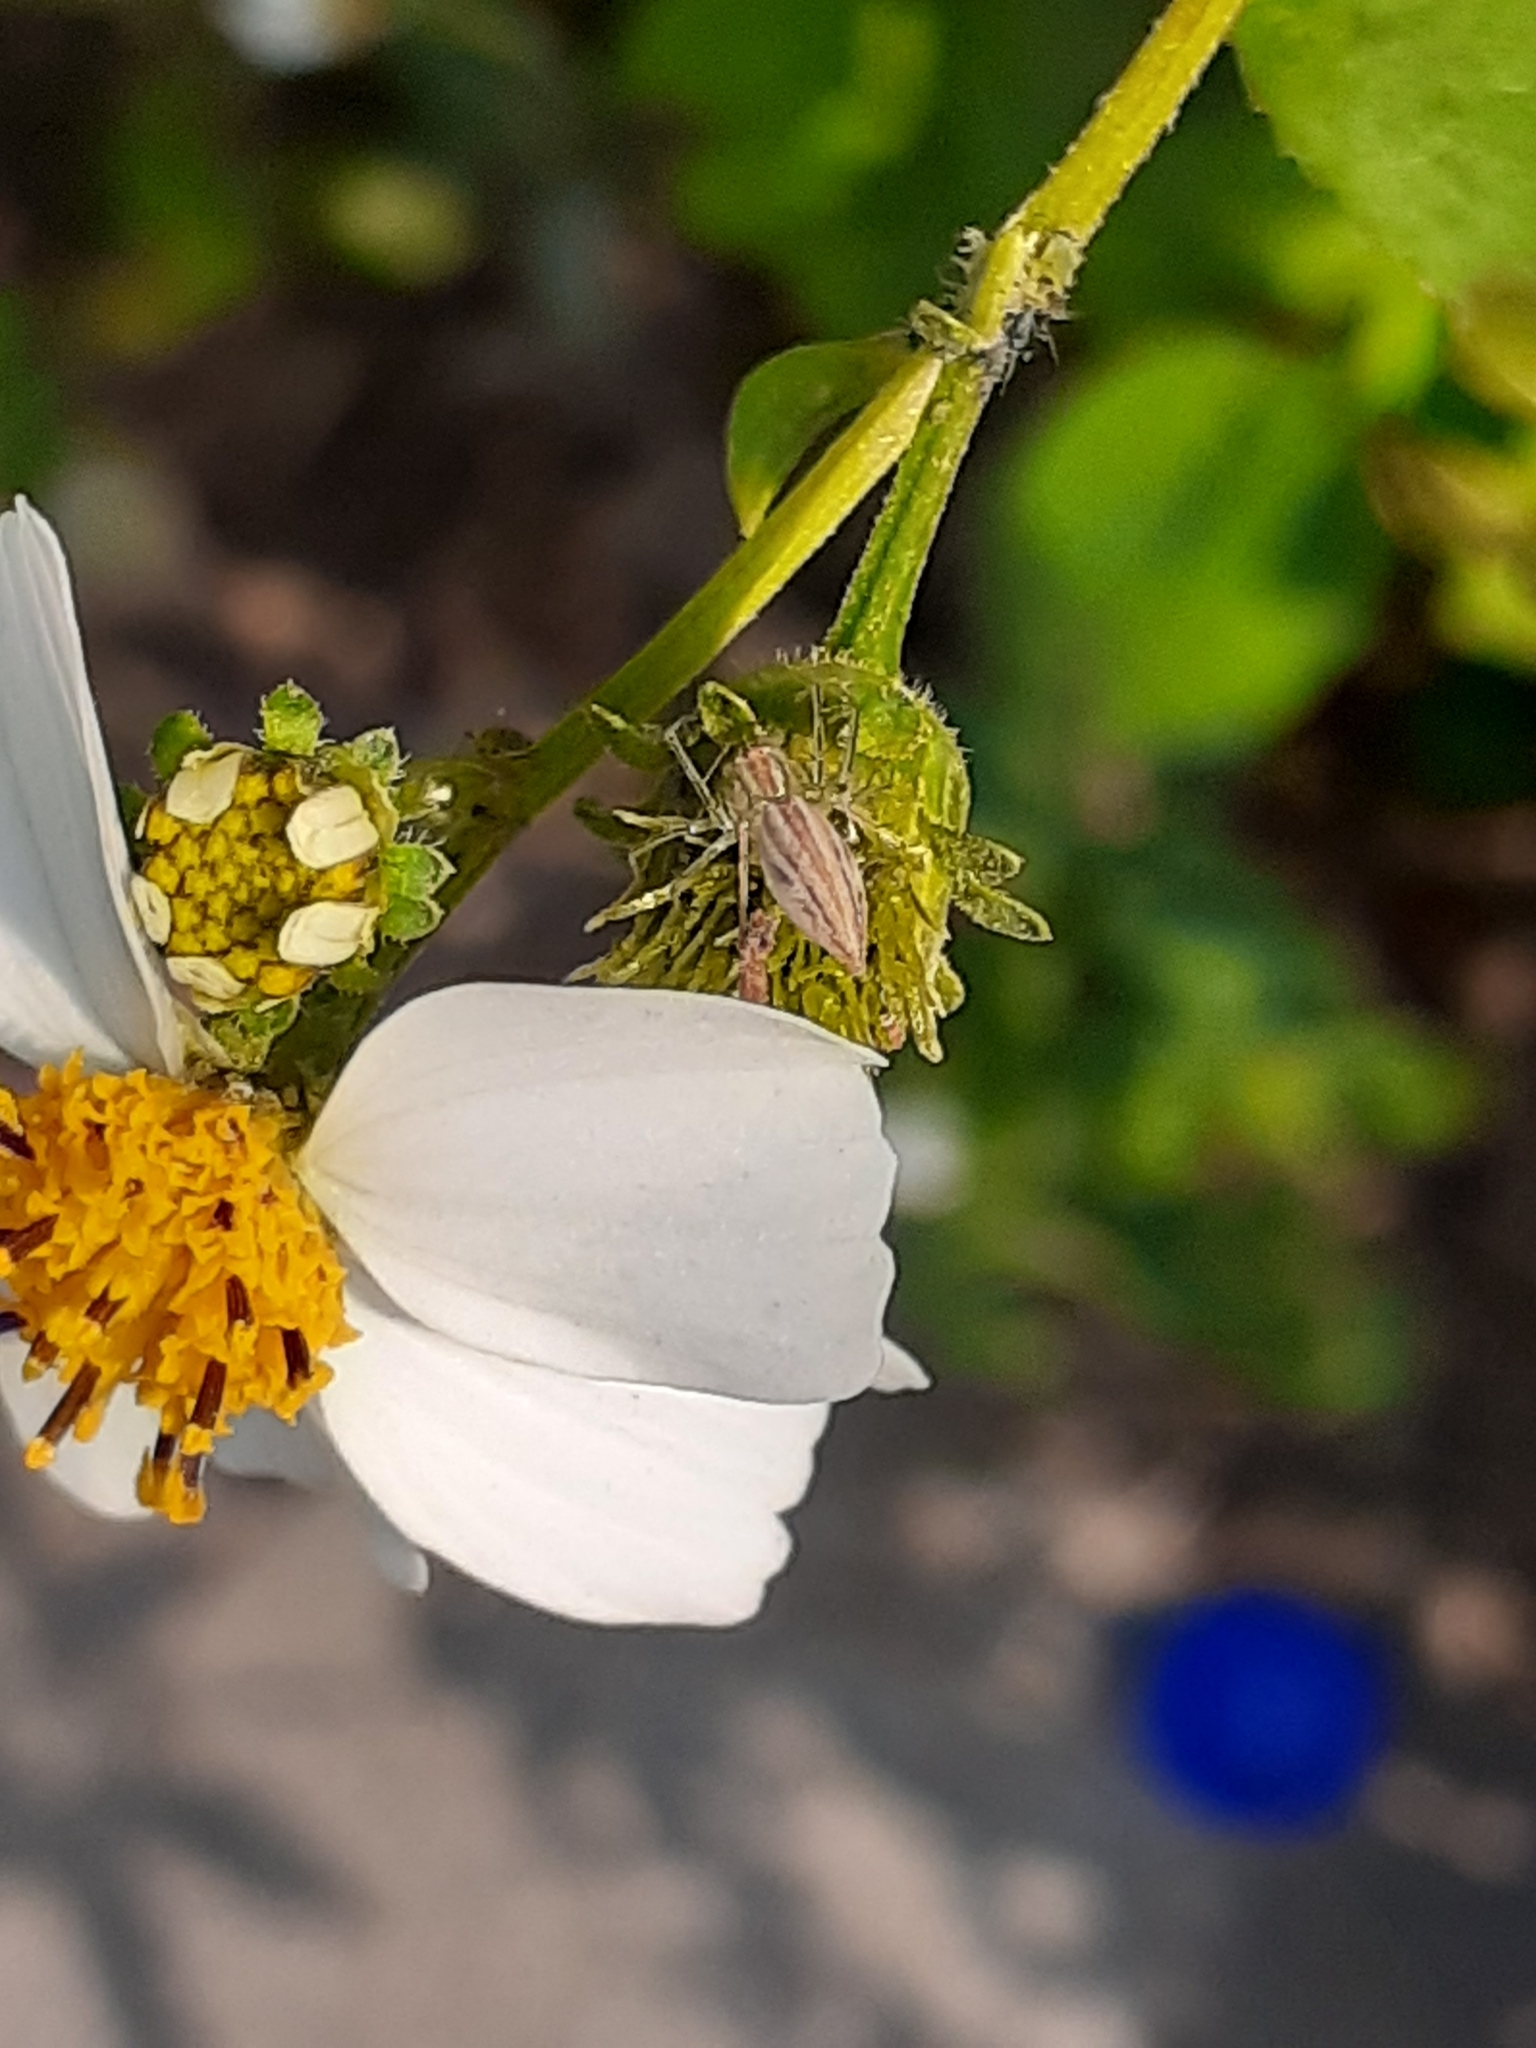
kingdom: Animalia
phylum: Arthropoda
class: Arachnida
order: Araneae
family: Oxyopidae
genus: Oxyopes
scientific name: Oxyopes macilentus
